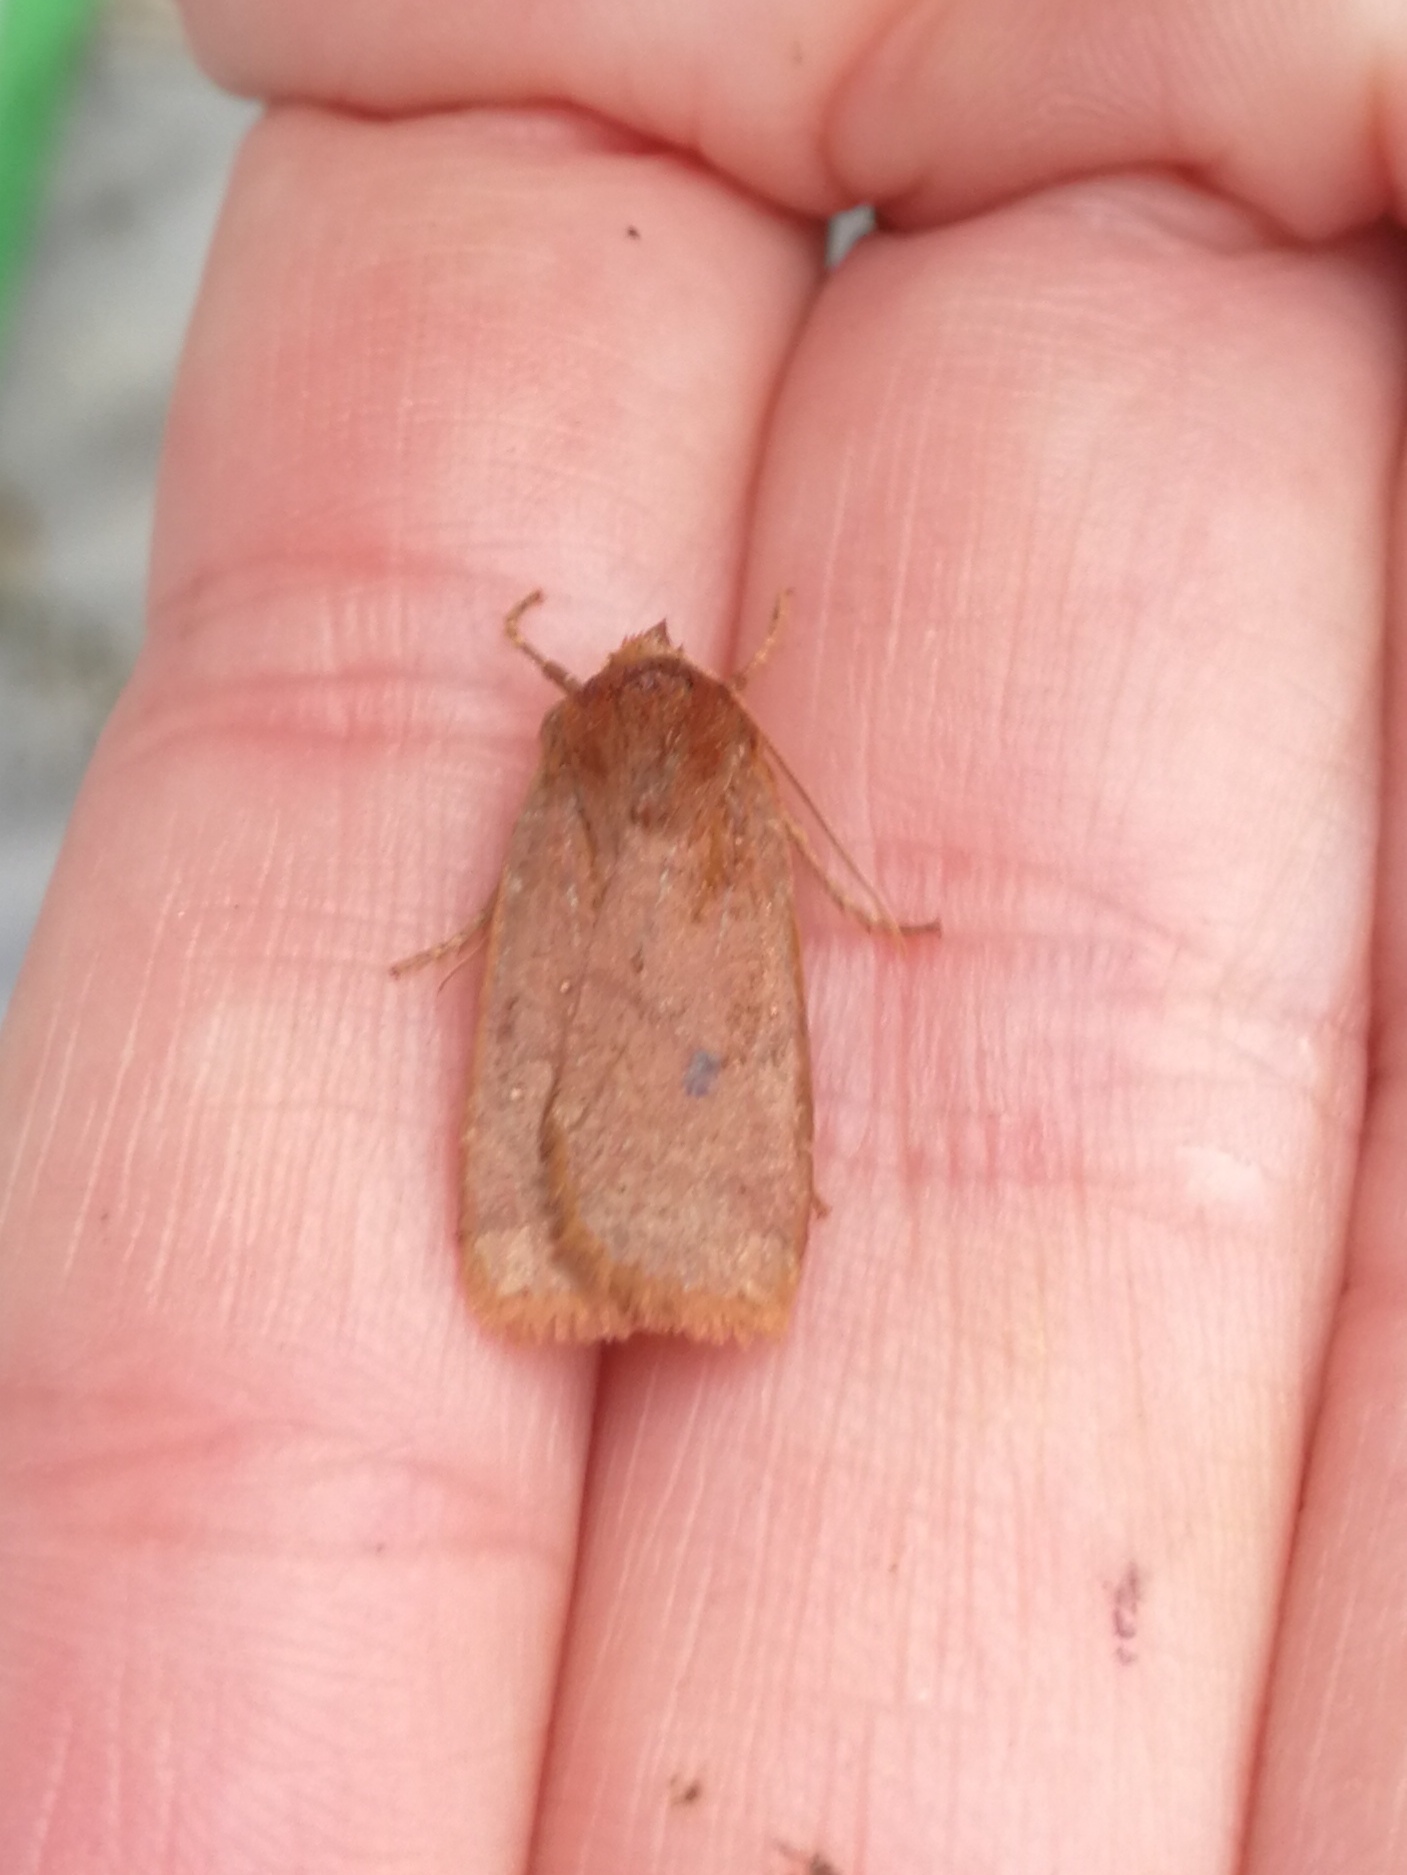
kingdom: Animalia
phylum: Arthropoda
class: Insecta
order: Lepidoptera
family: Noctuidae
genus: Conistra
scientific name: Conistra vaccinii
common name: Chestnut
